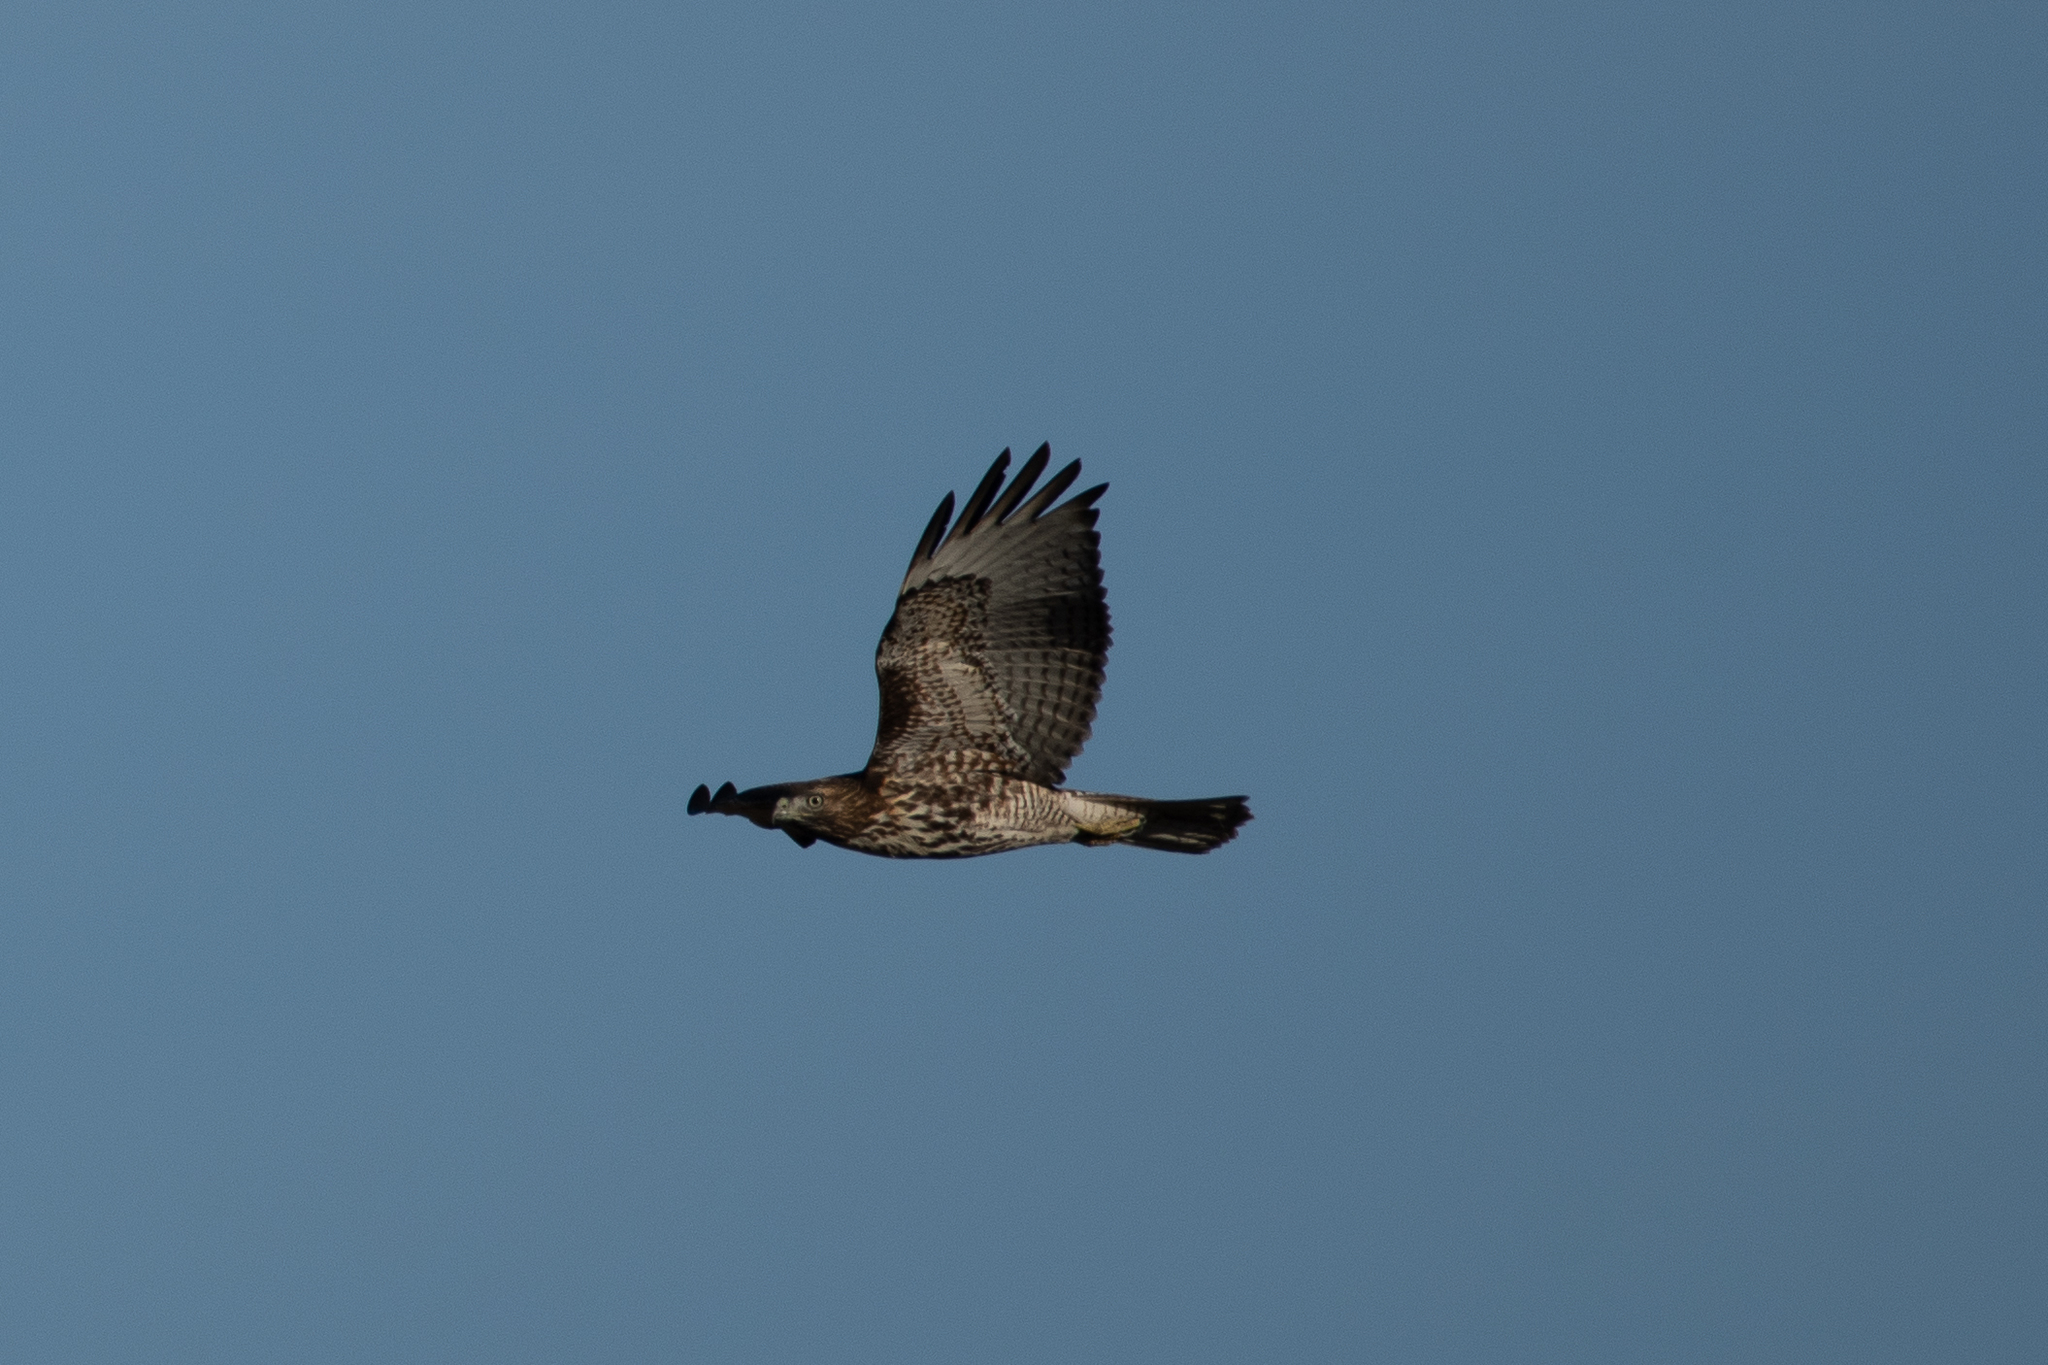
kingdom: Animalia
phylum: Chordata
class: Aves
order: Accipitriformes
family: Accipitridae
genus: Buteo
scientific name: Buteo jamaicensis
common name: Red-tailed hawk
